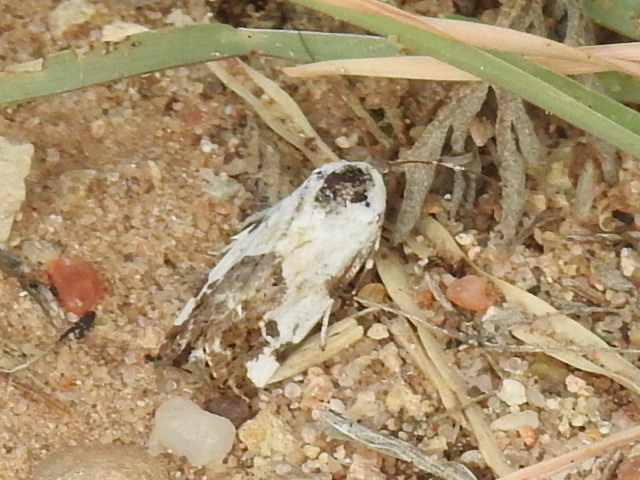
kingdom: Animalia
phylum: Arthropoda
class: Insecta
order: Lepidoptera
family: Noctuidae
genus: Acontia
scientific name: Acontia candefacta
